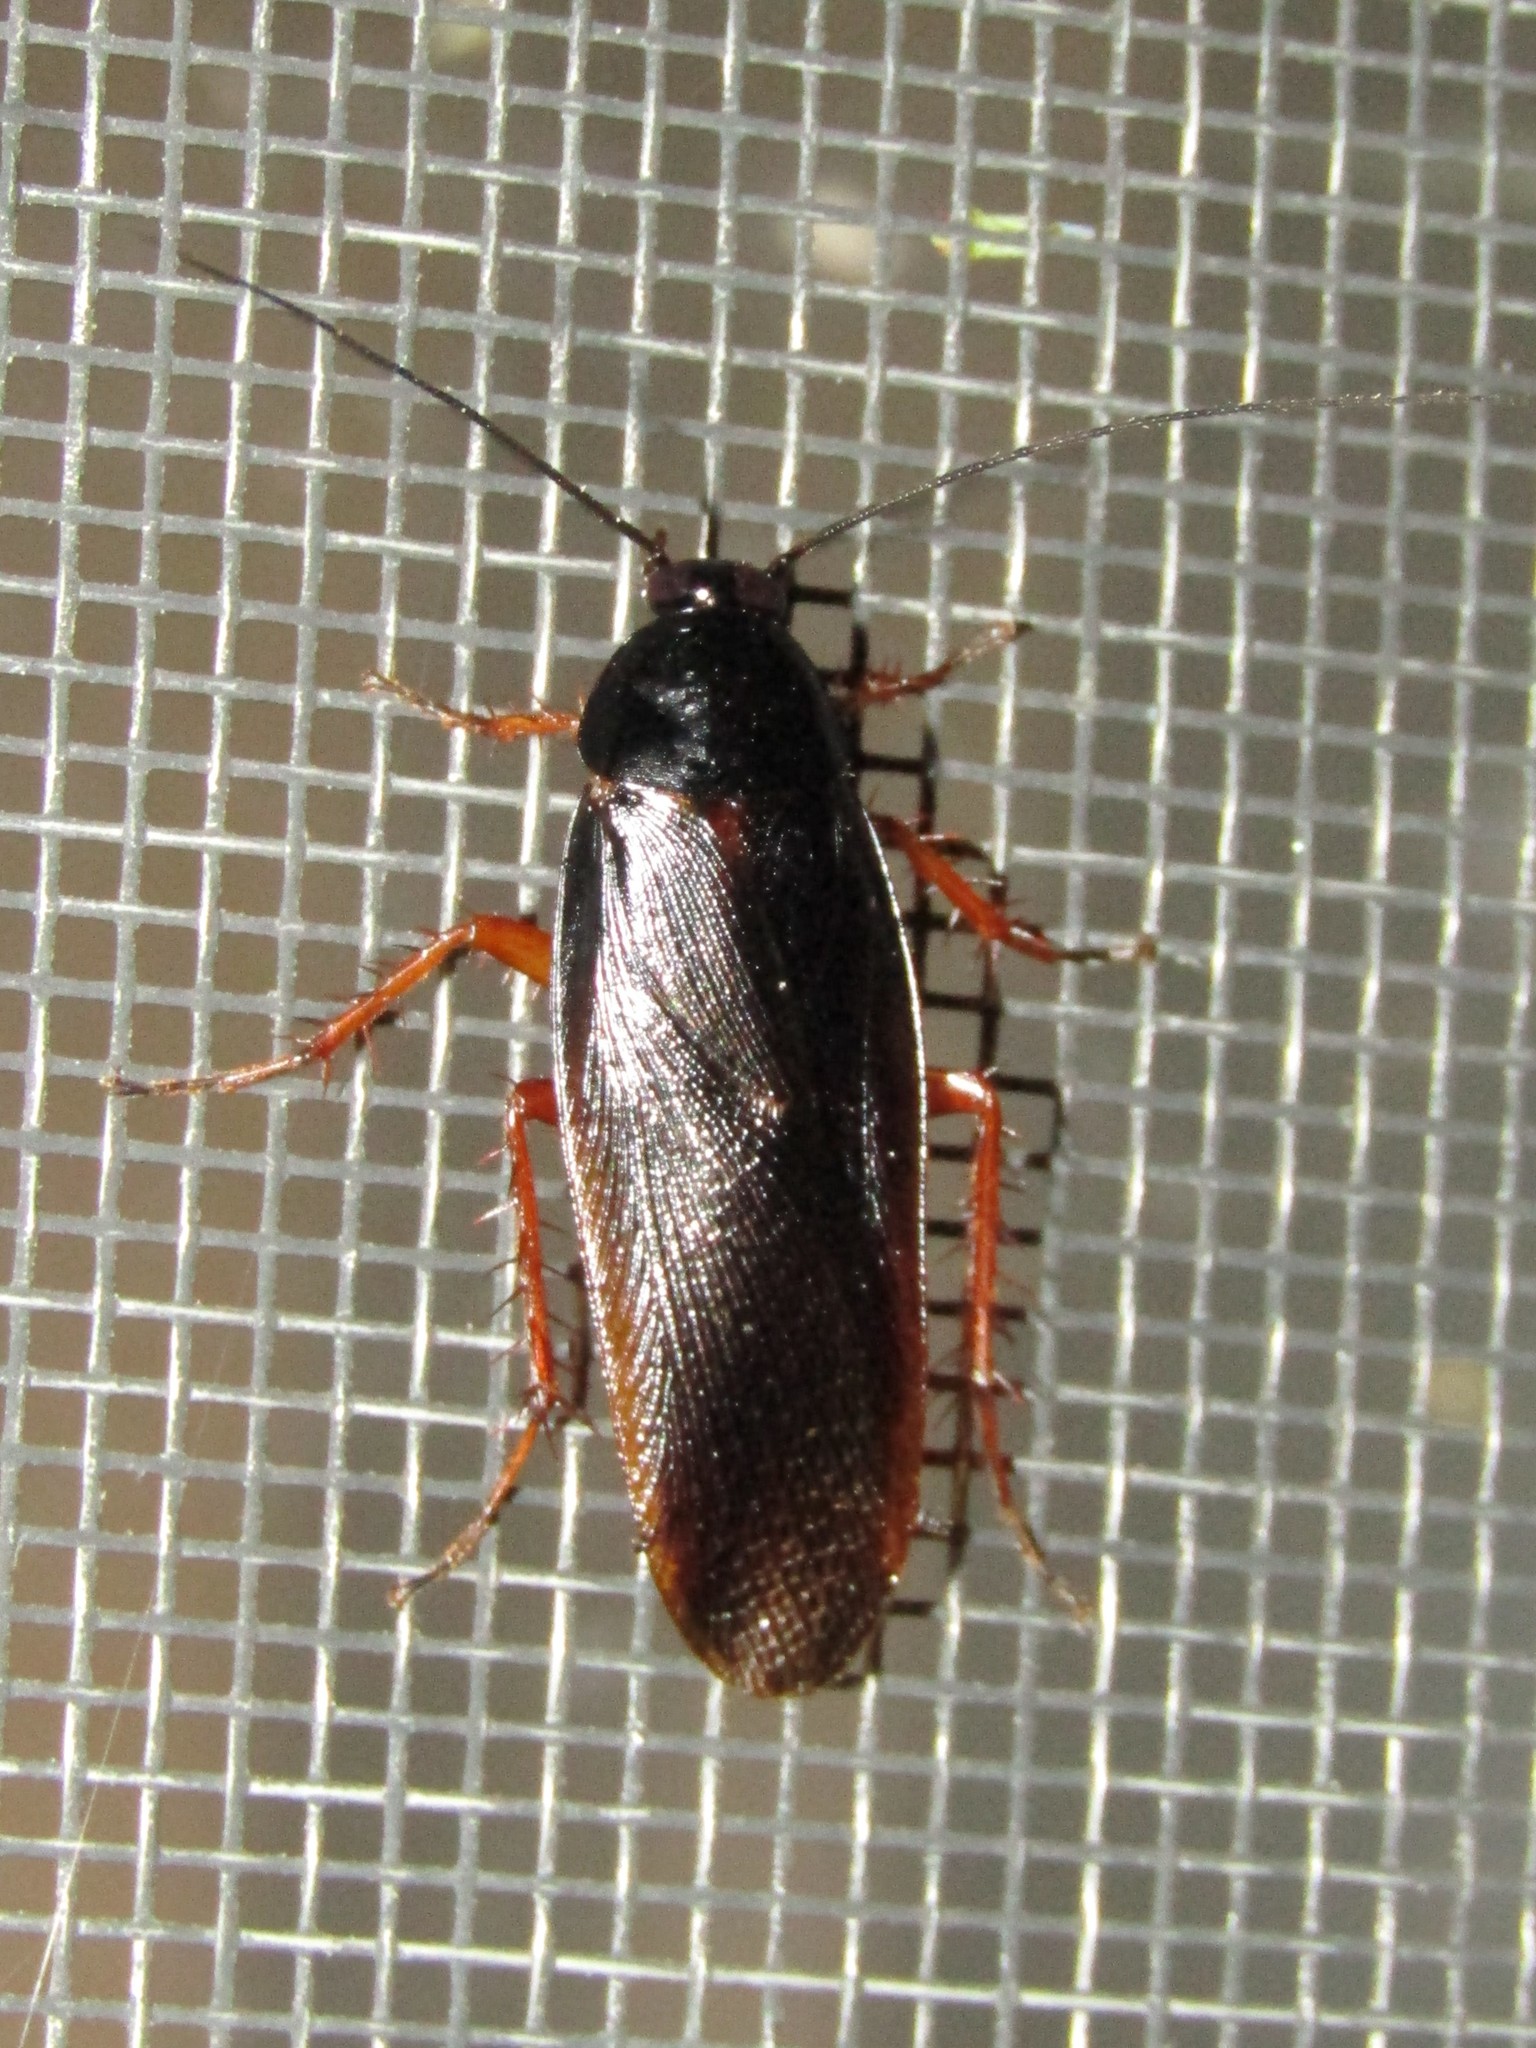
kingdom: Animalia
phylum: Arthropoda
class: Insecta
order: Blattodea
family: Ectobiidae
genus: Ischnoptera
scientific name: Ischnoptera deropeltiformis
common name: Dark wood cockroach
